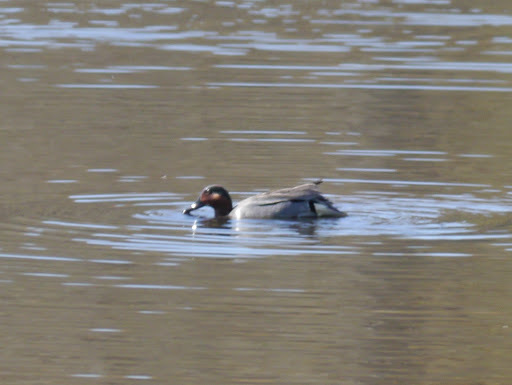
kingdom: Animalia
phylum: Chordata
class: Aves
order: Anseriformes
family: Anatidae
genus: Anas
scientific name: Anas crecca
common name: Eurasian teal
